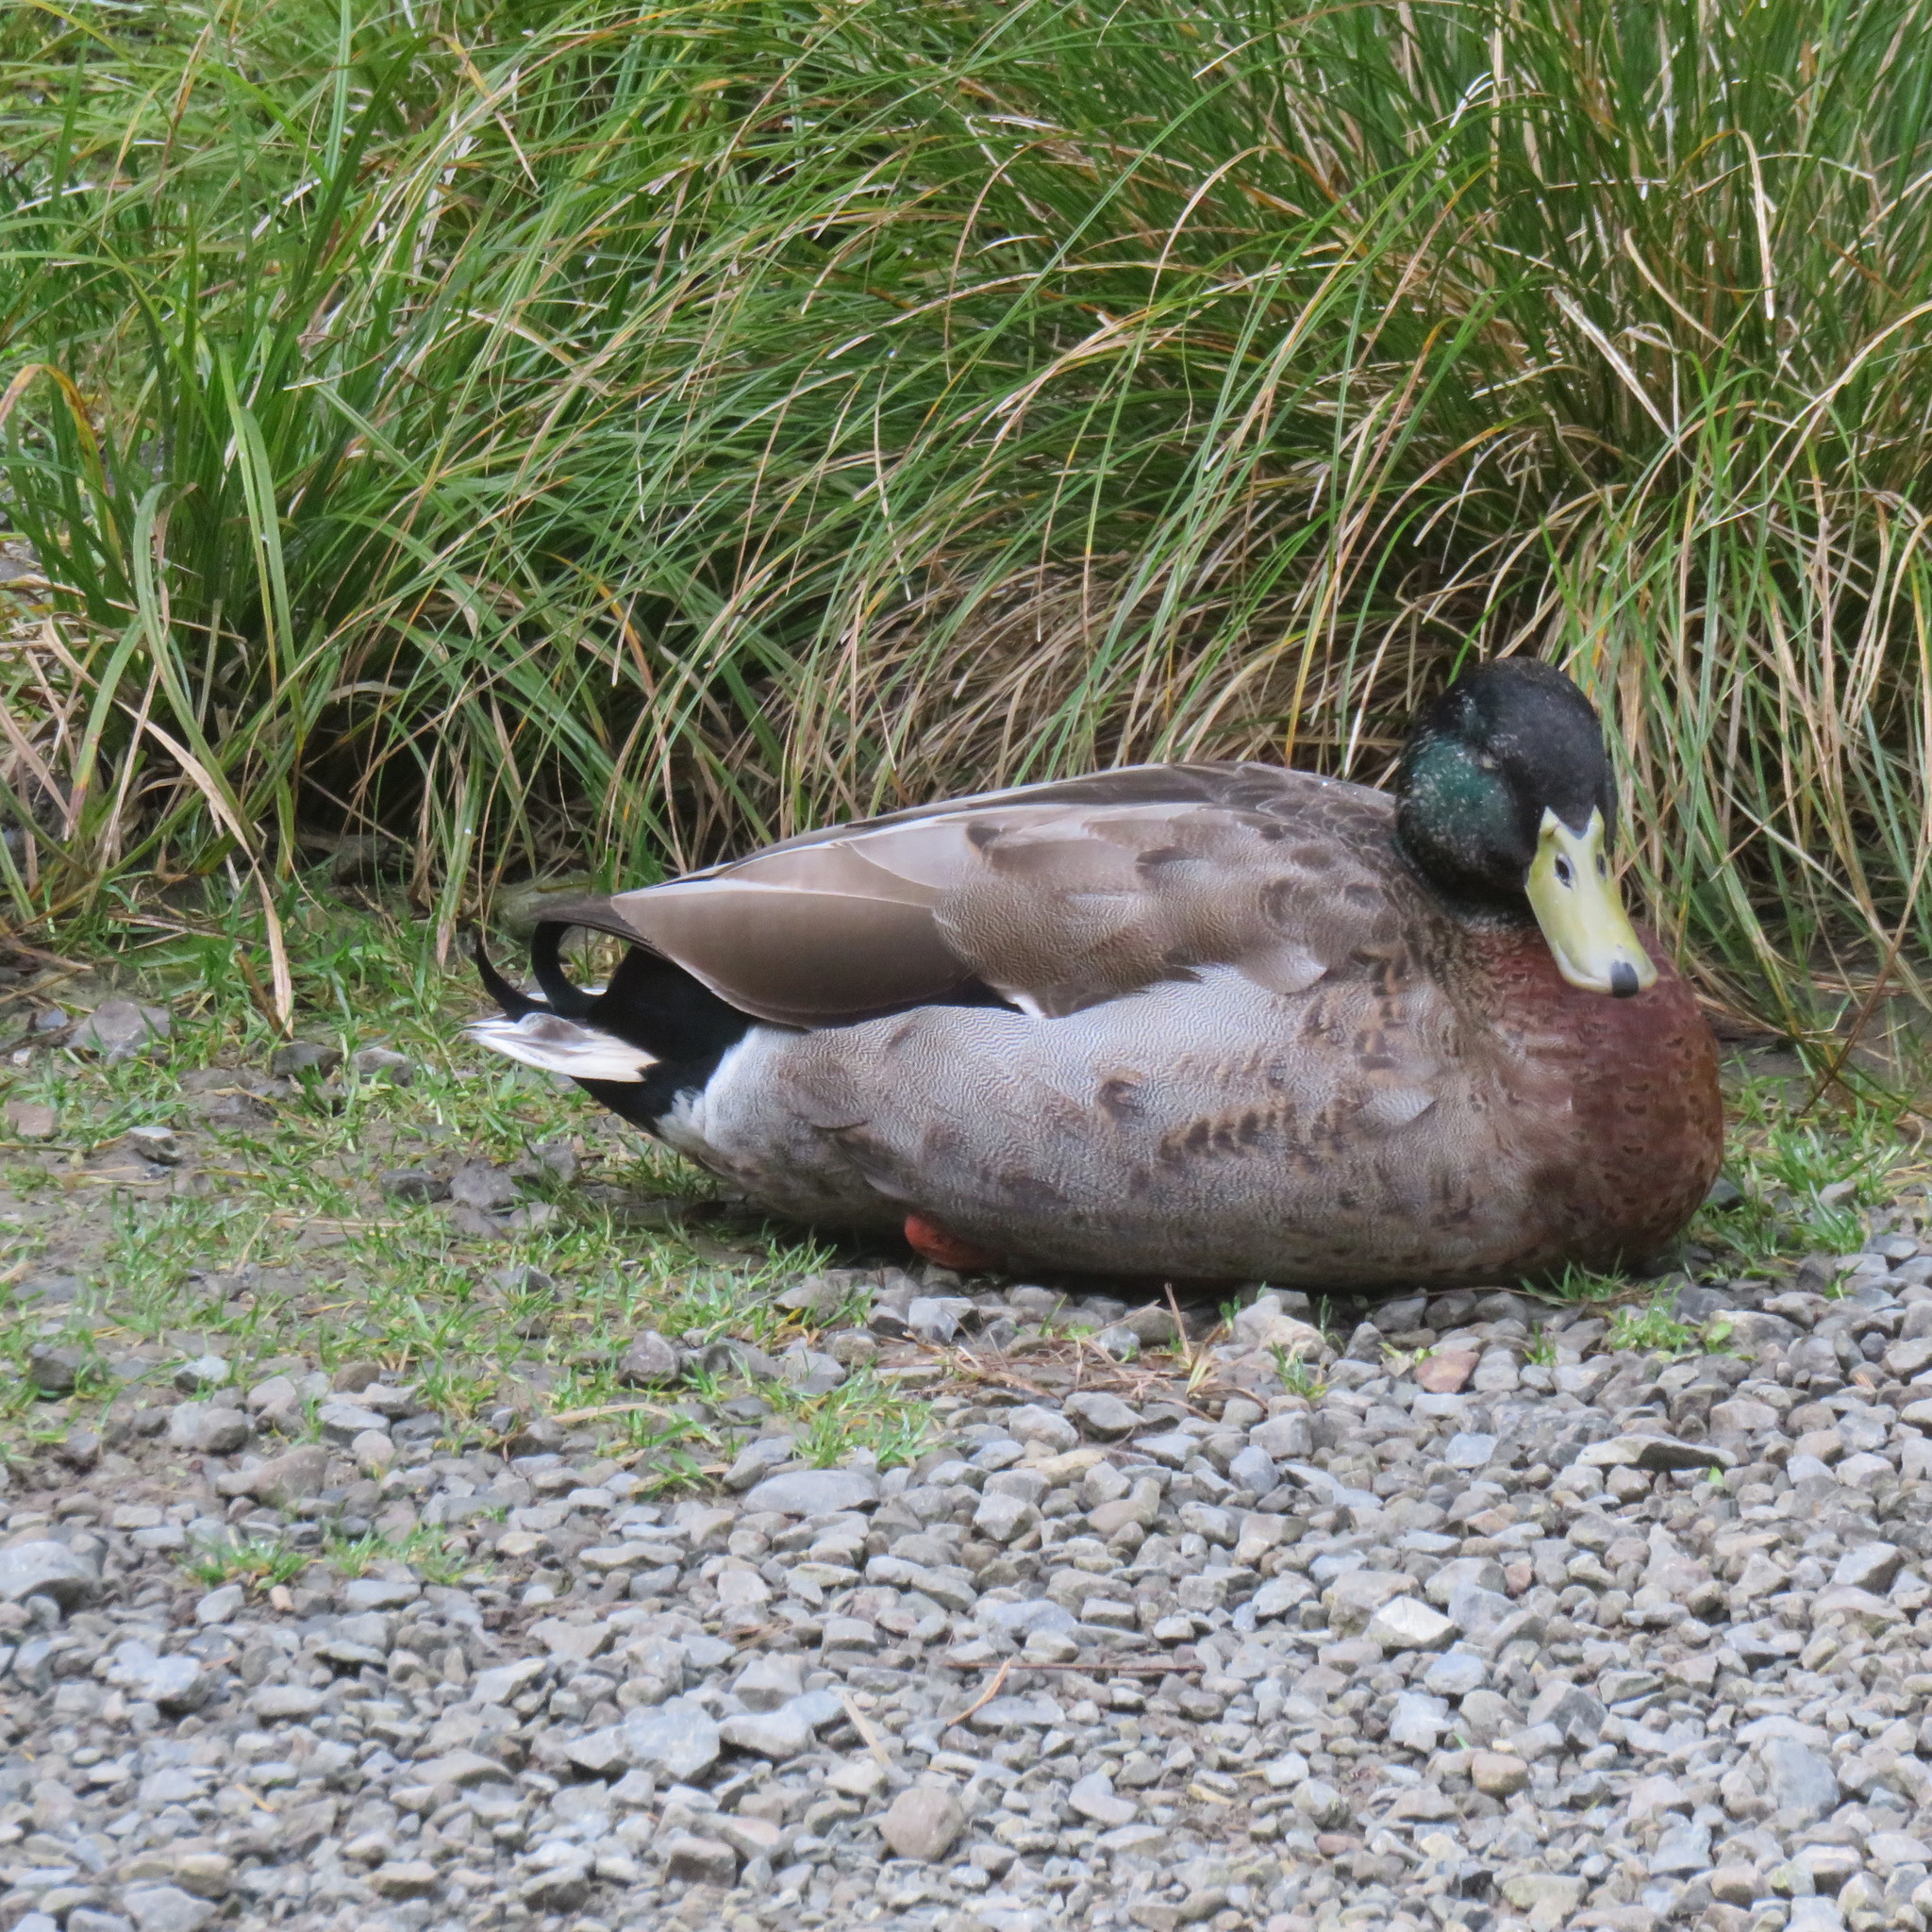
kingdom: Animalia
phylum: Chordata
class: Aves
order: Anseriformes
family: Anatidae
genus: Anas
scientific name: Anas platyrhynchos
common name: Mallard
